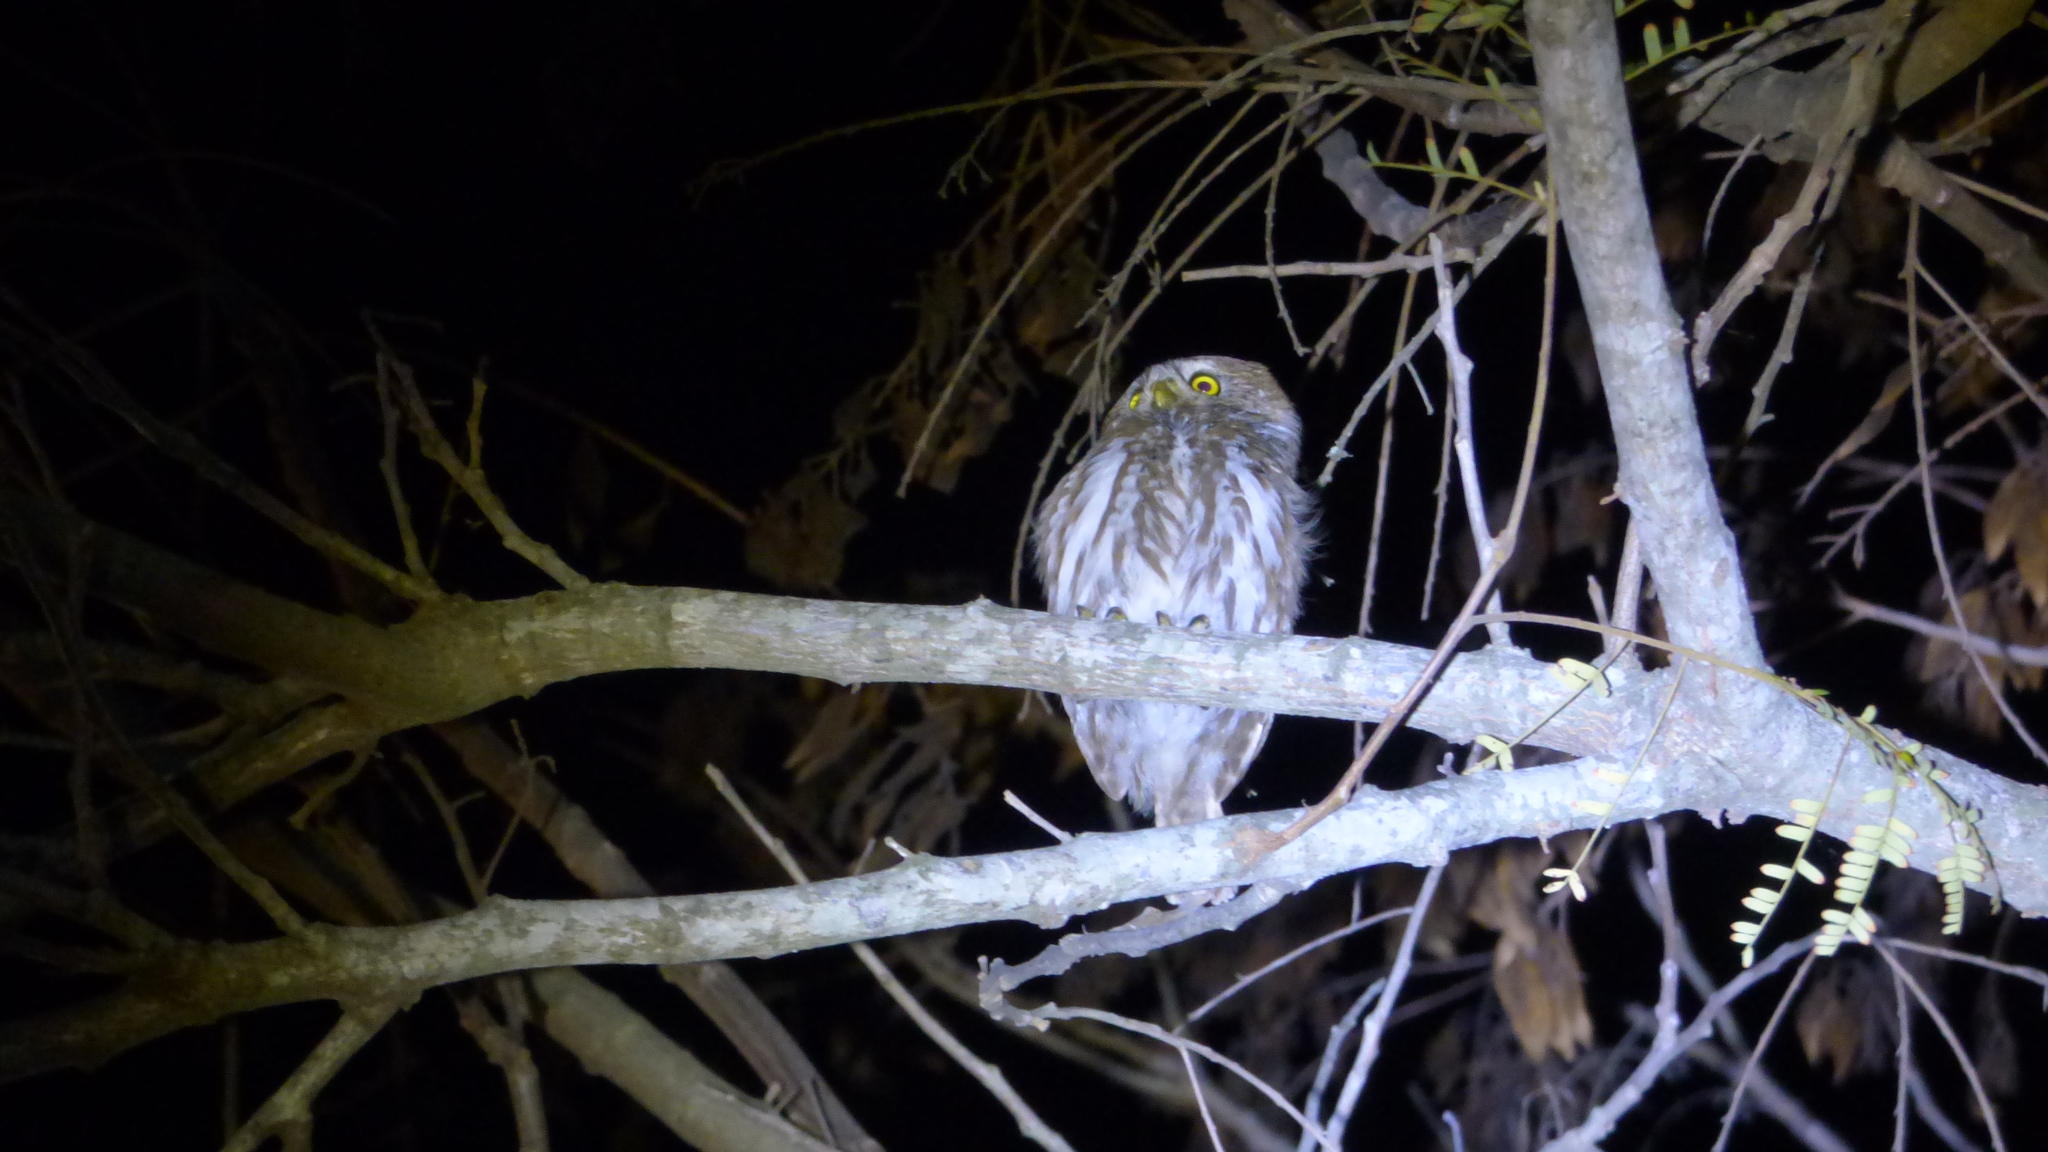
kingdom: Animalia
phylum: Chordata
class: Aves
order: Strigiformes
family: Strigidae
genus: Glaucidium
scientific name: Glaucidium brasilianum
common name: Ferruginous pygmy-owl
